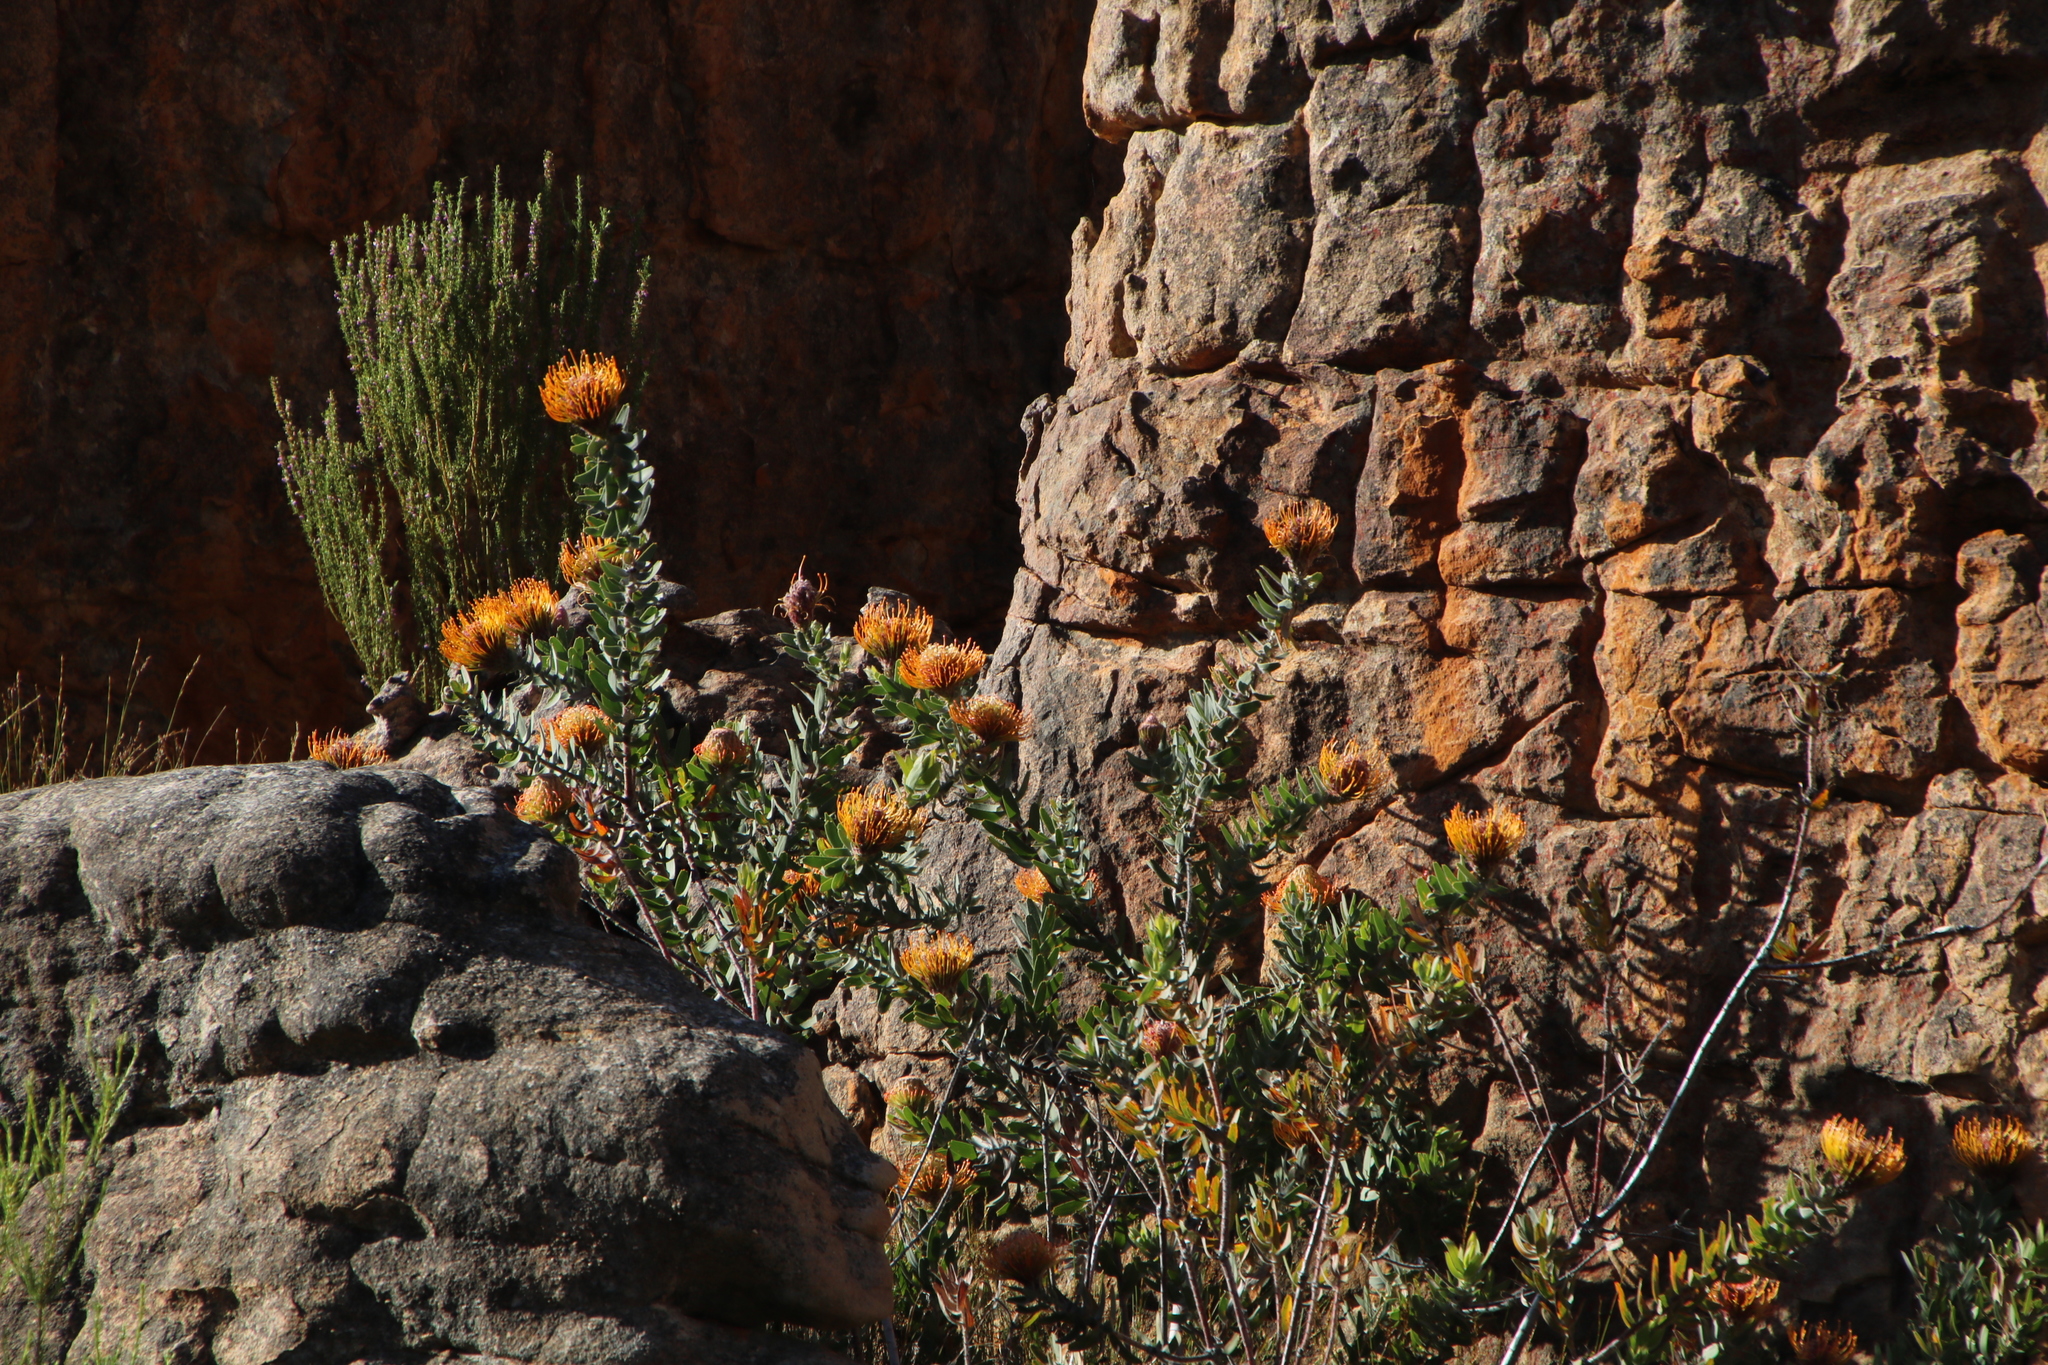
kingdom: Plantae
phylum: Tracheophyta
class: Magnoliopsida
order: Proteales
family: Proteaceae
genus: Leucospermum
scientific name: Leucospermum vestitum
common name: Silky-hair pincushion
